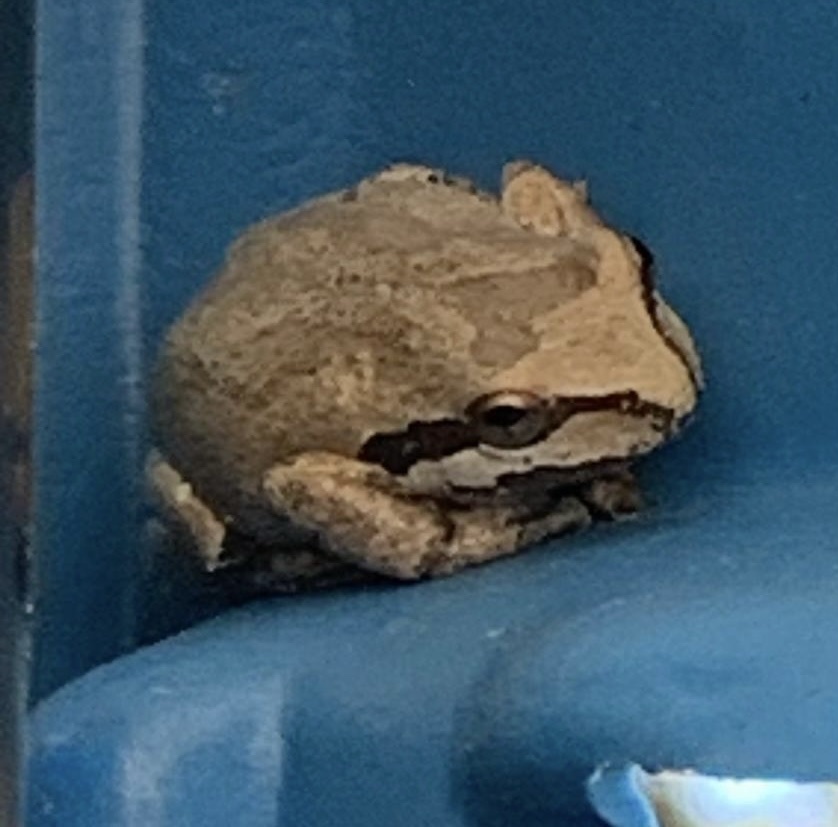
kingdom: Animalia
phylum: Chordata
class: Amphibia
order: Anura
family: Hylidae
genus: Pseudacris
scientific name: Pseudacris regilla
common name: Pacific chorus frog
